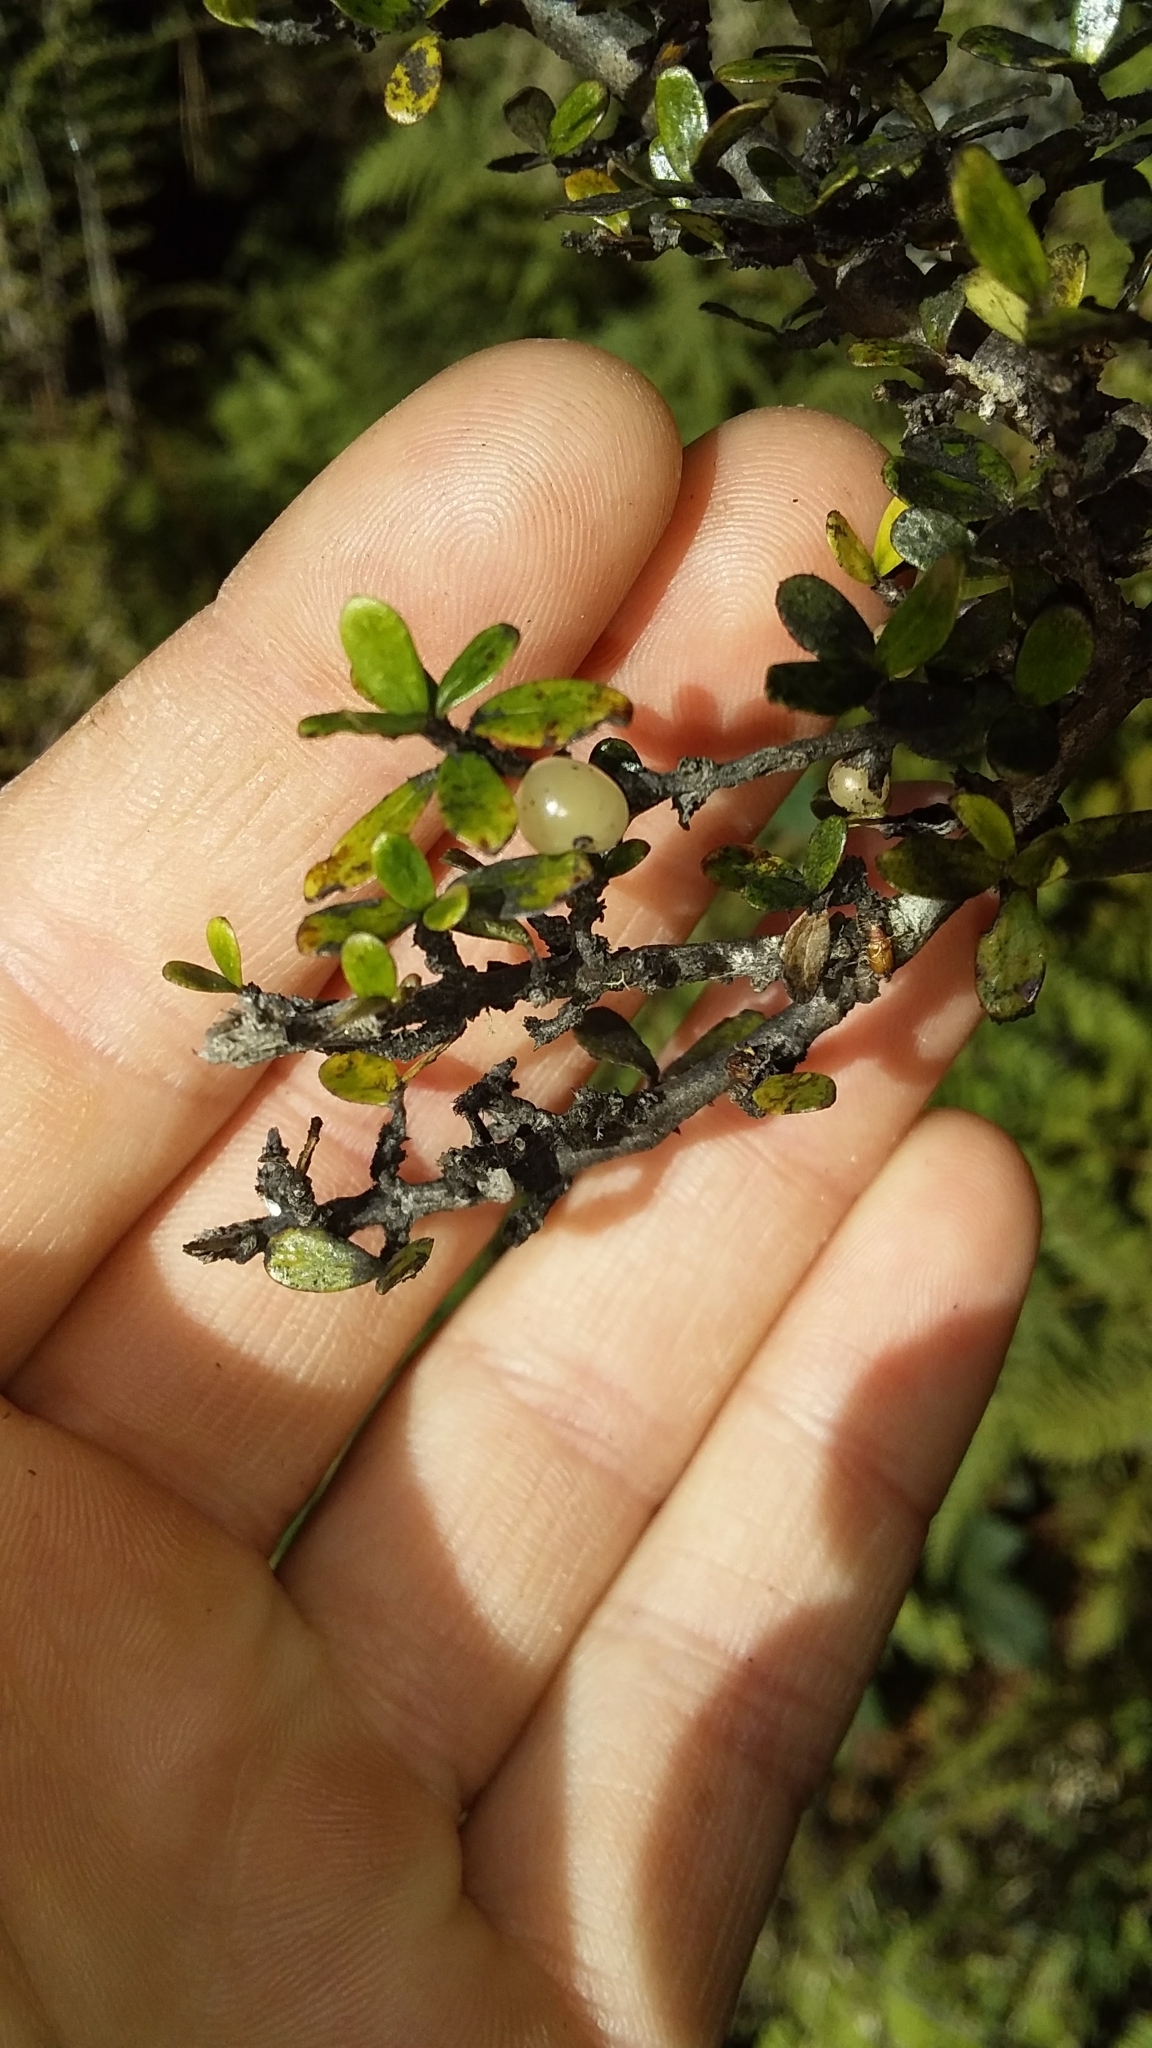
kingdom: Plantae
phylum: Tracheophyta
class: Magnoliopsida
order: Gentianales
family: Rubiaceae
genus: Coprosma
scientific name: Coprosma dumosa
